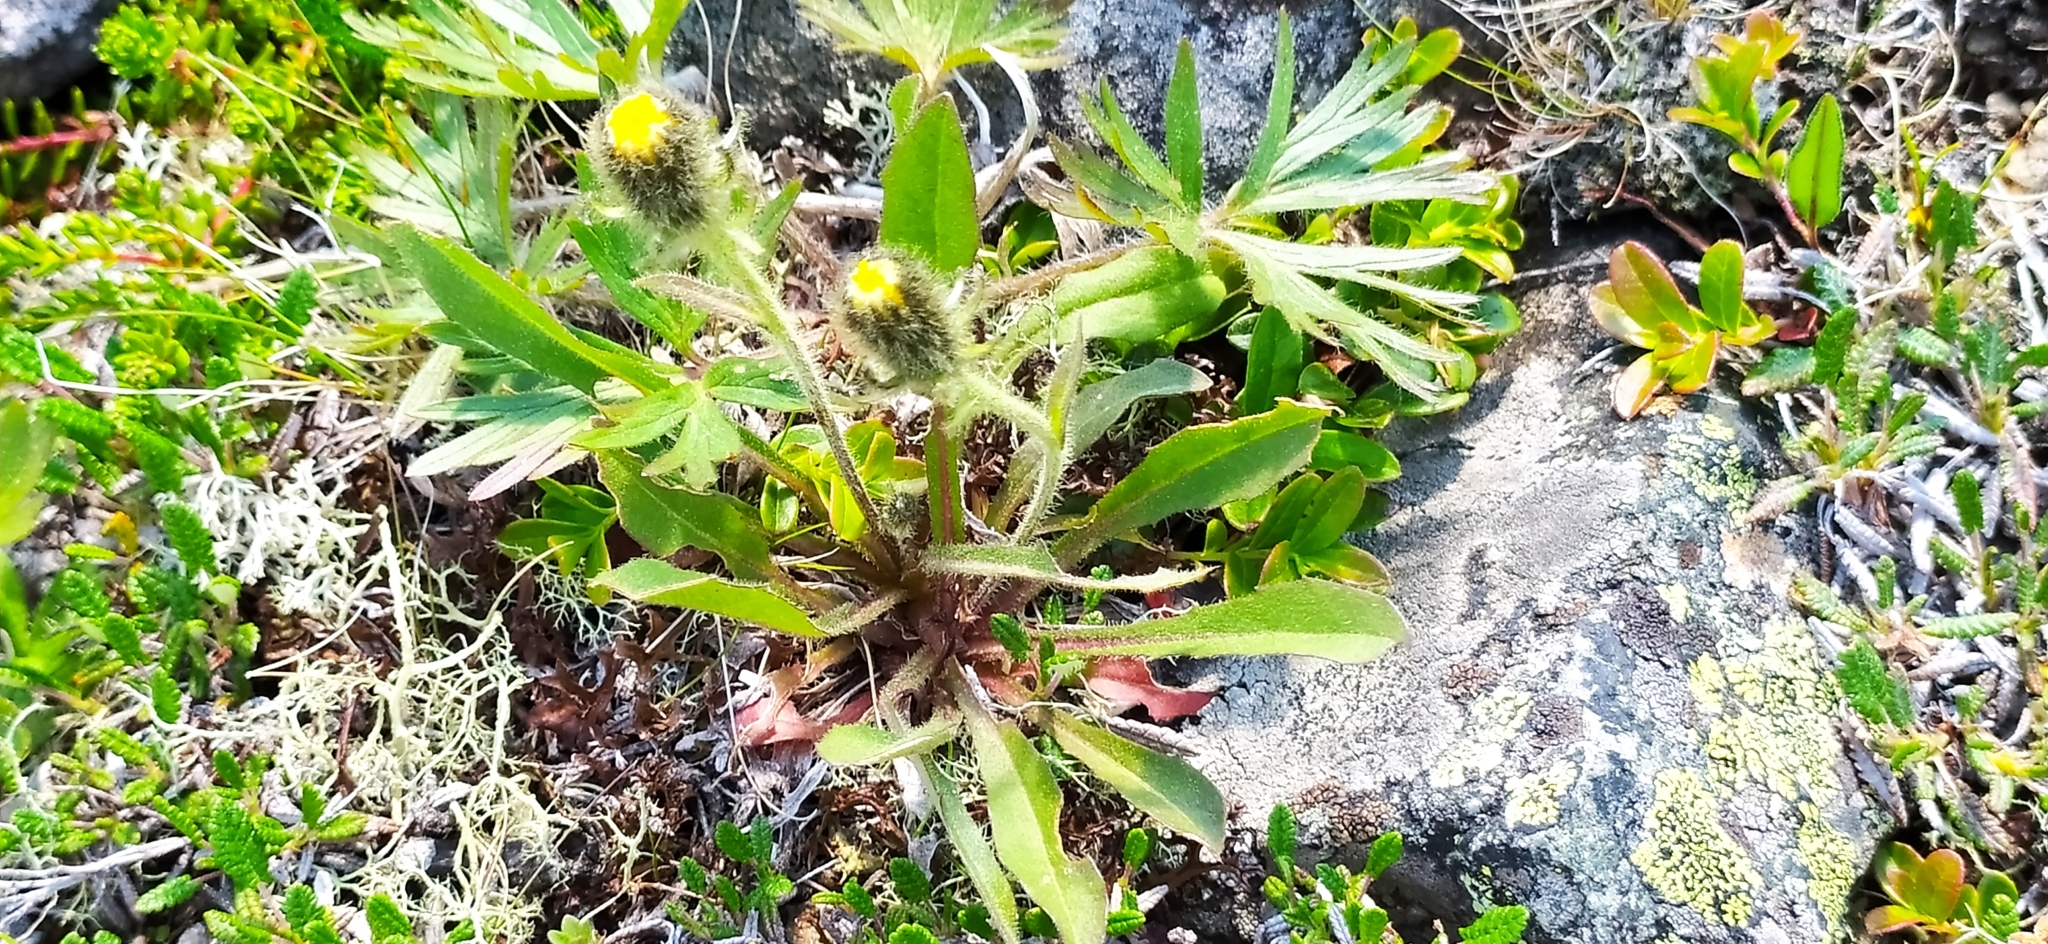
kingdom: Plantae
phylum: Tracheophyta
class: Magnoliopsida
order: Asterales
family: Asteraceae
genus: Hieracium
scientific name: Hieracium alpinum
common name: Alpine hawkweed
